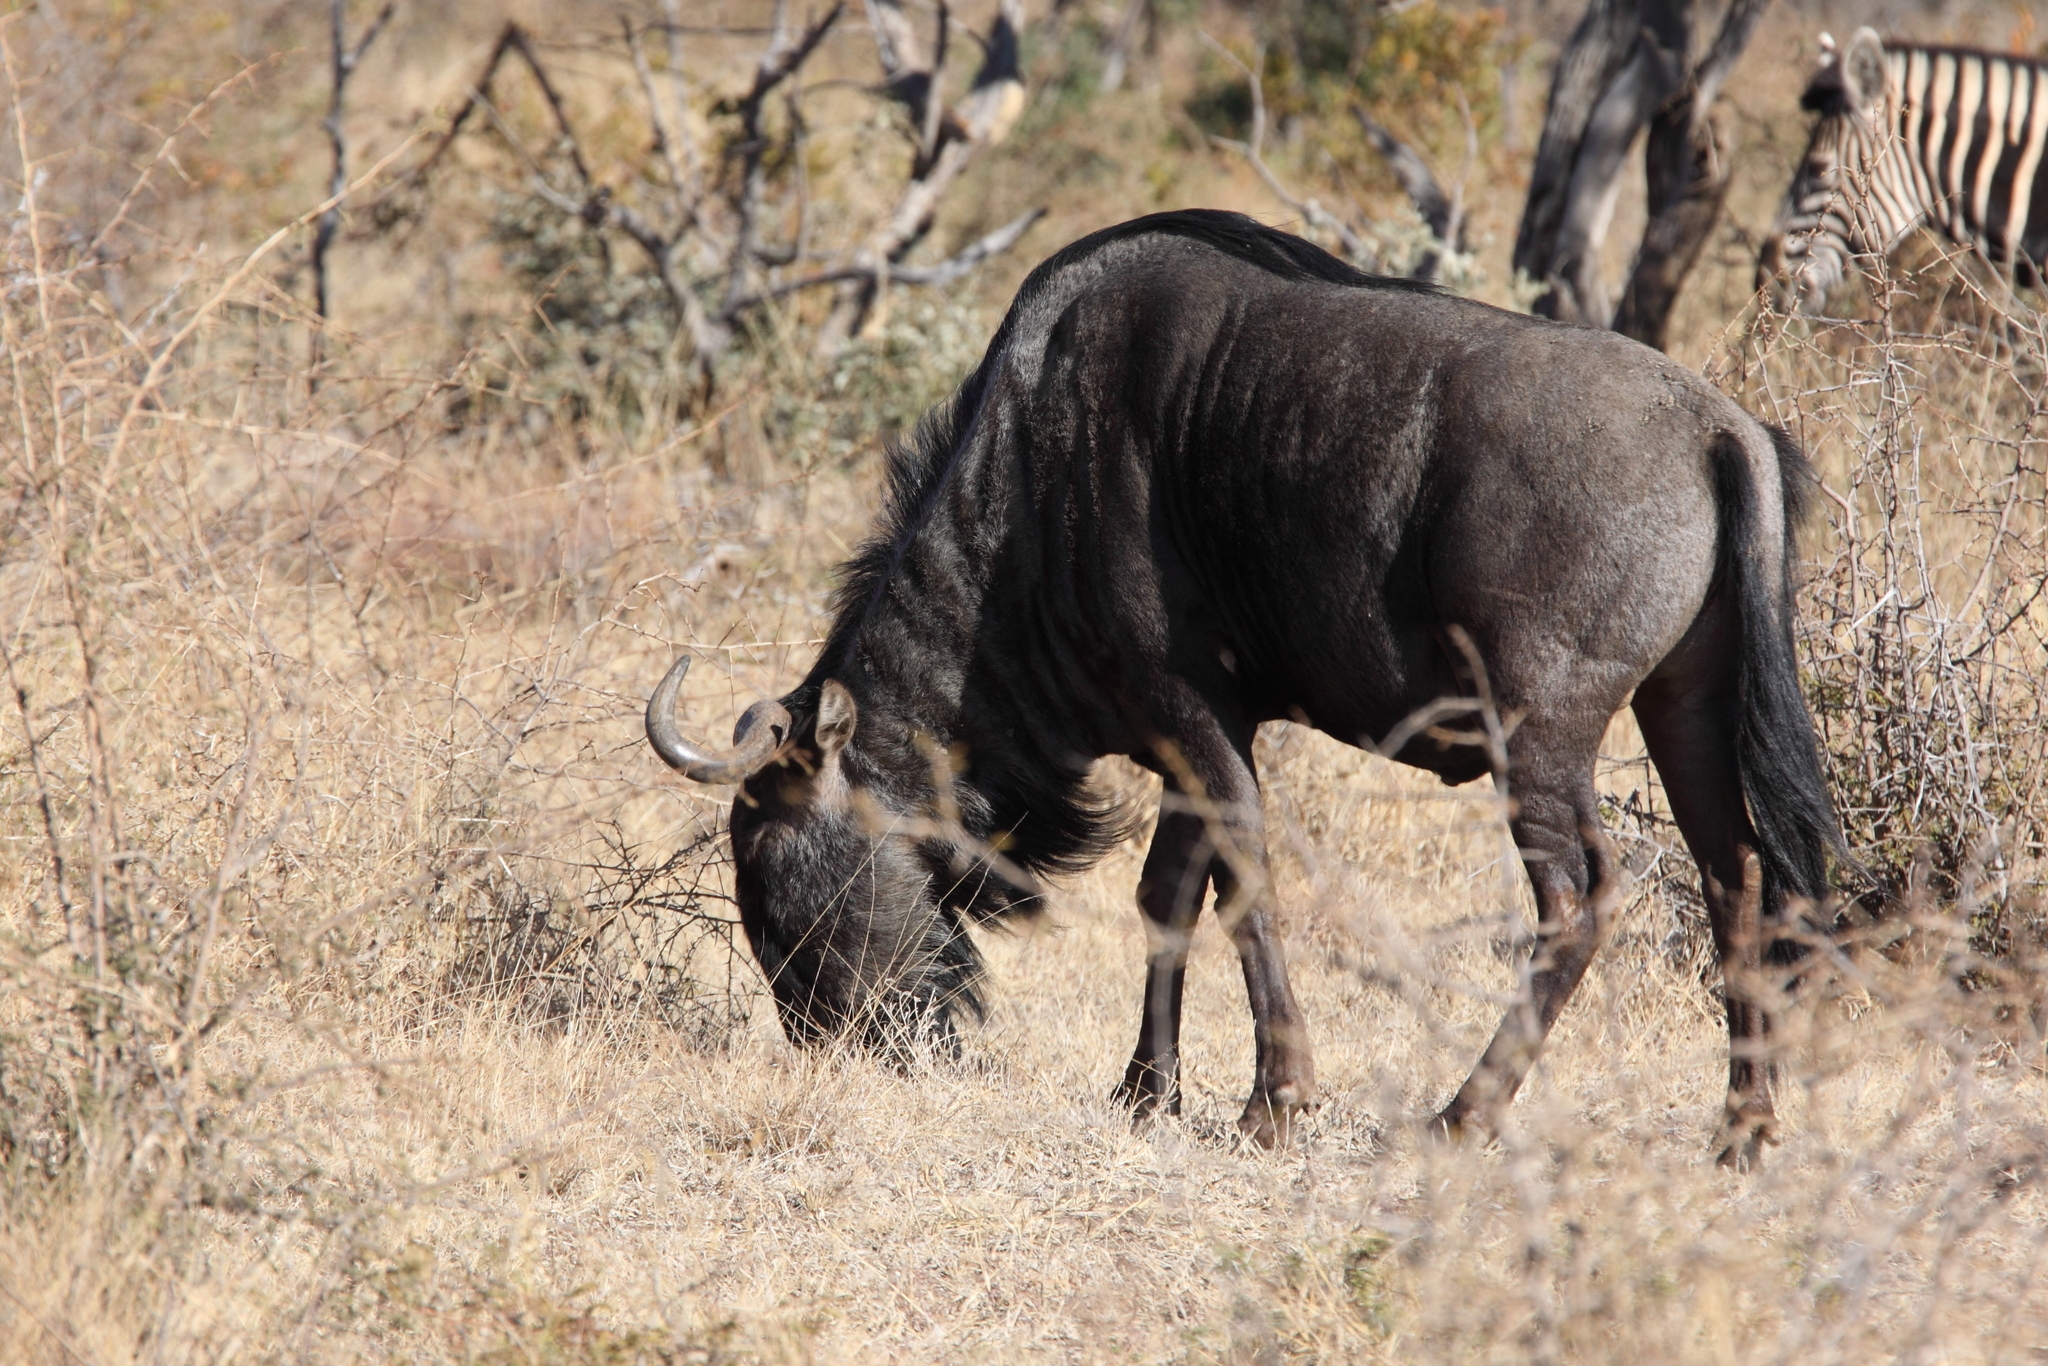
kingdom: Animalia
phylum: Chordata
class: Mammalia
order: Artiodactyla
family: Bovidae
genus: Connochaetes
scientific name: Connochaetes taurinus
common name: Blue wildebeest
